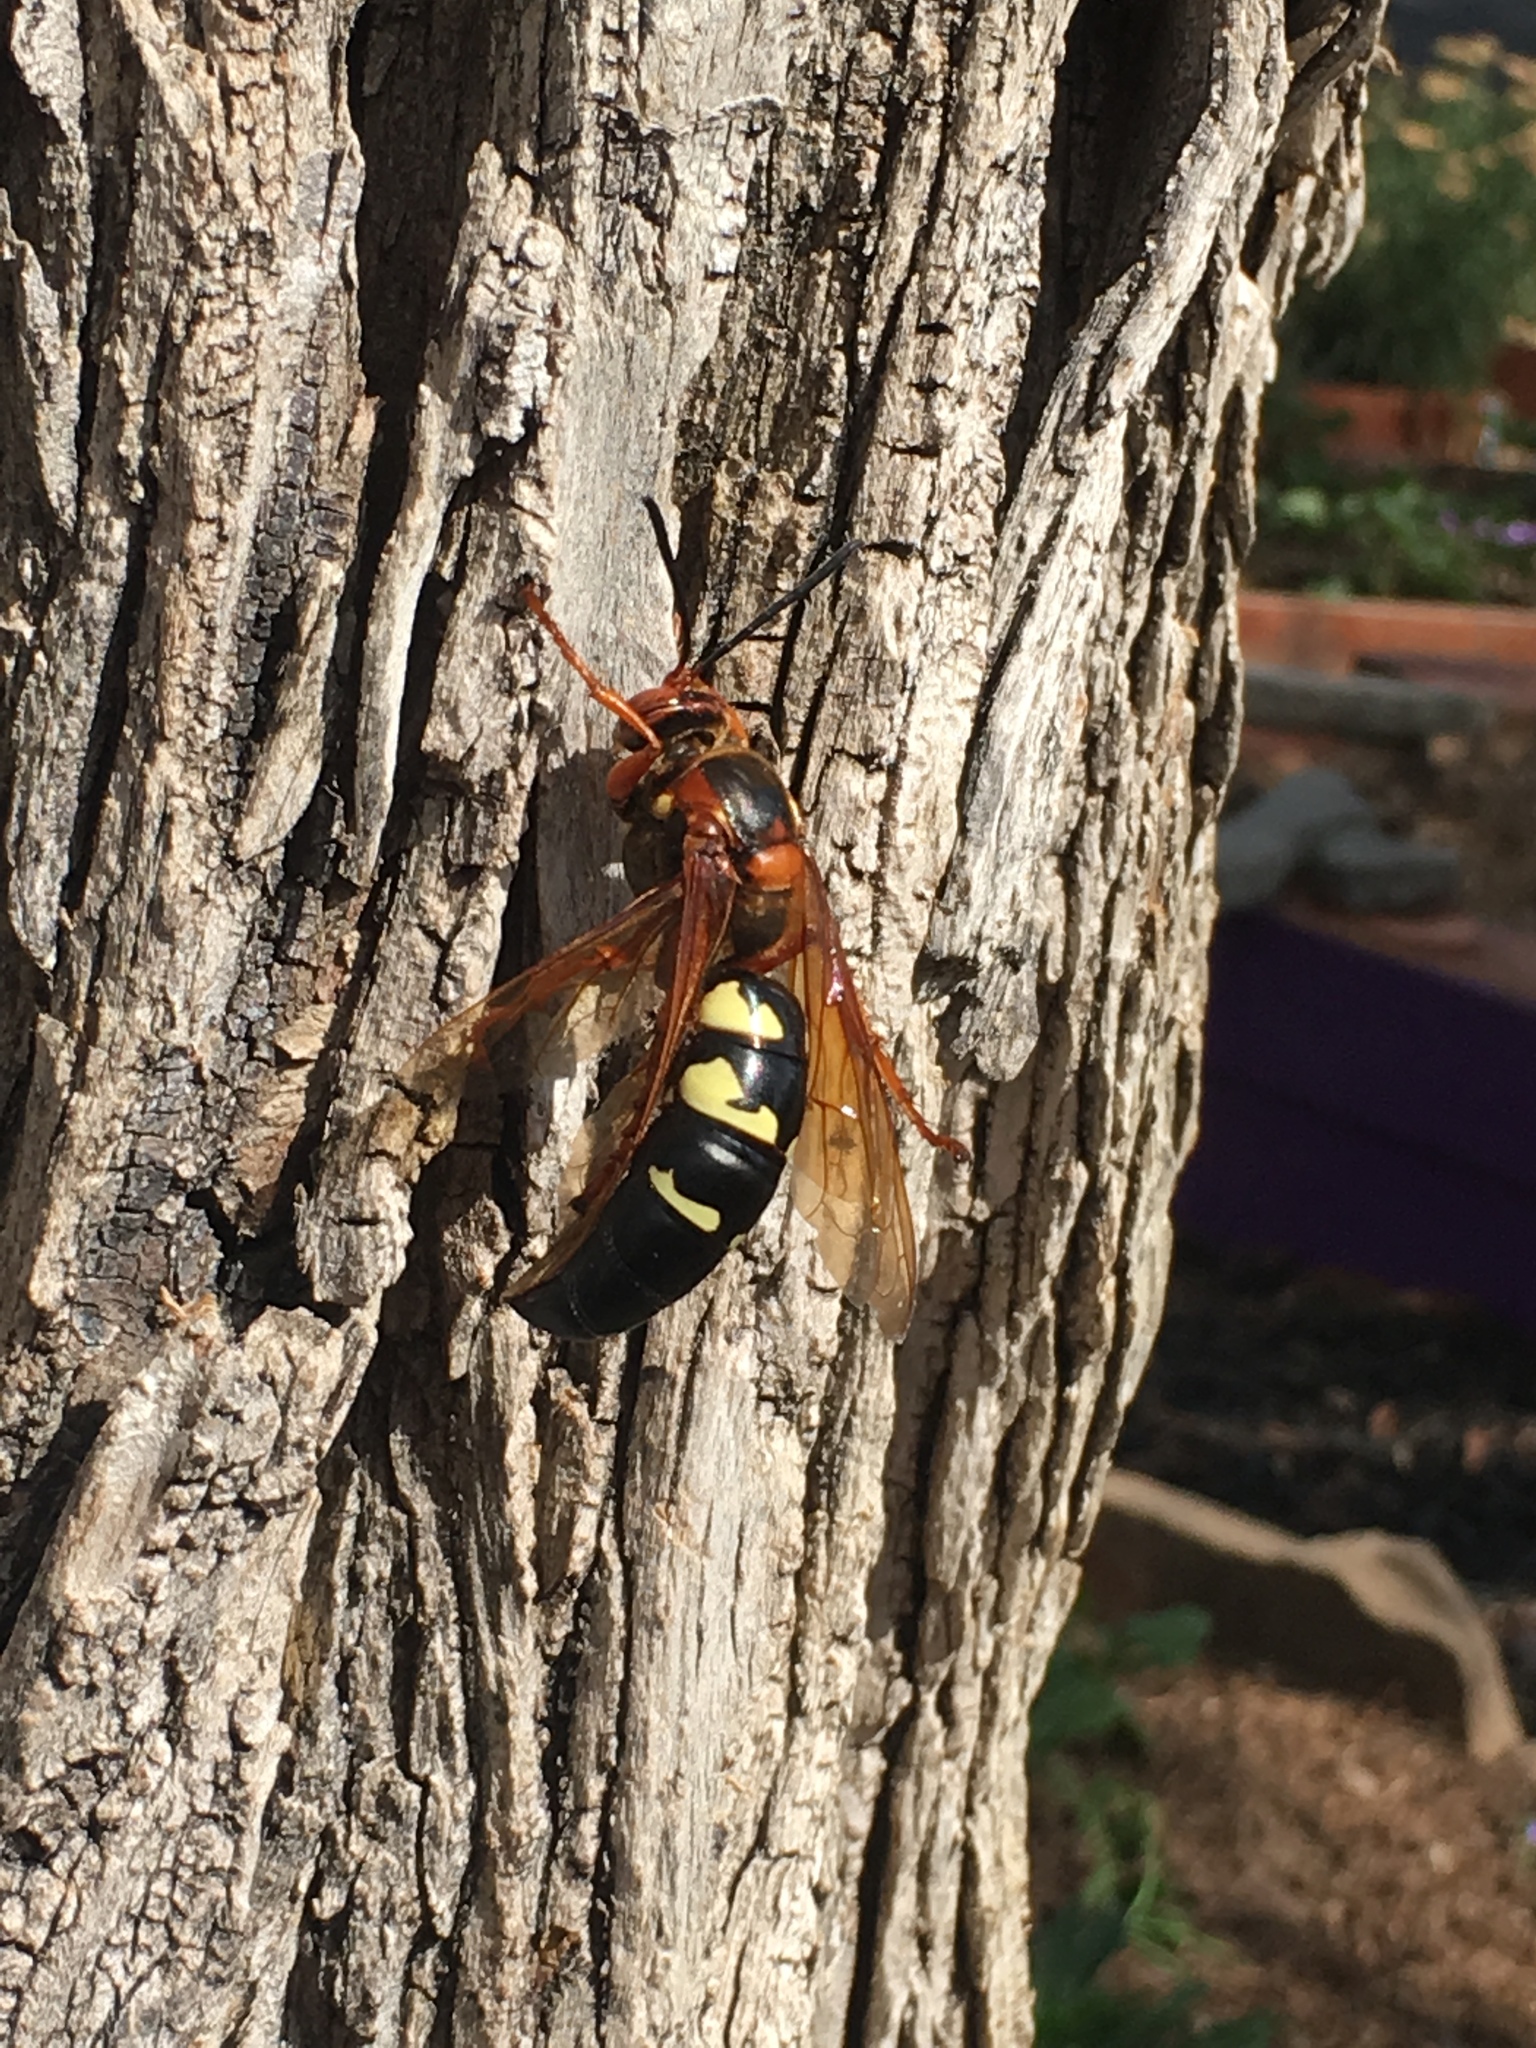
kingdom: Animalia
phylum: Arthropoda
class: Insecta
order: Hymenoptera
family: Crabronidae
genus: Sphecius
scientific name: Sphecius speciosus
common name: Cicada killer
